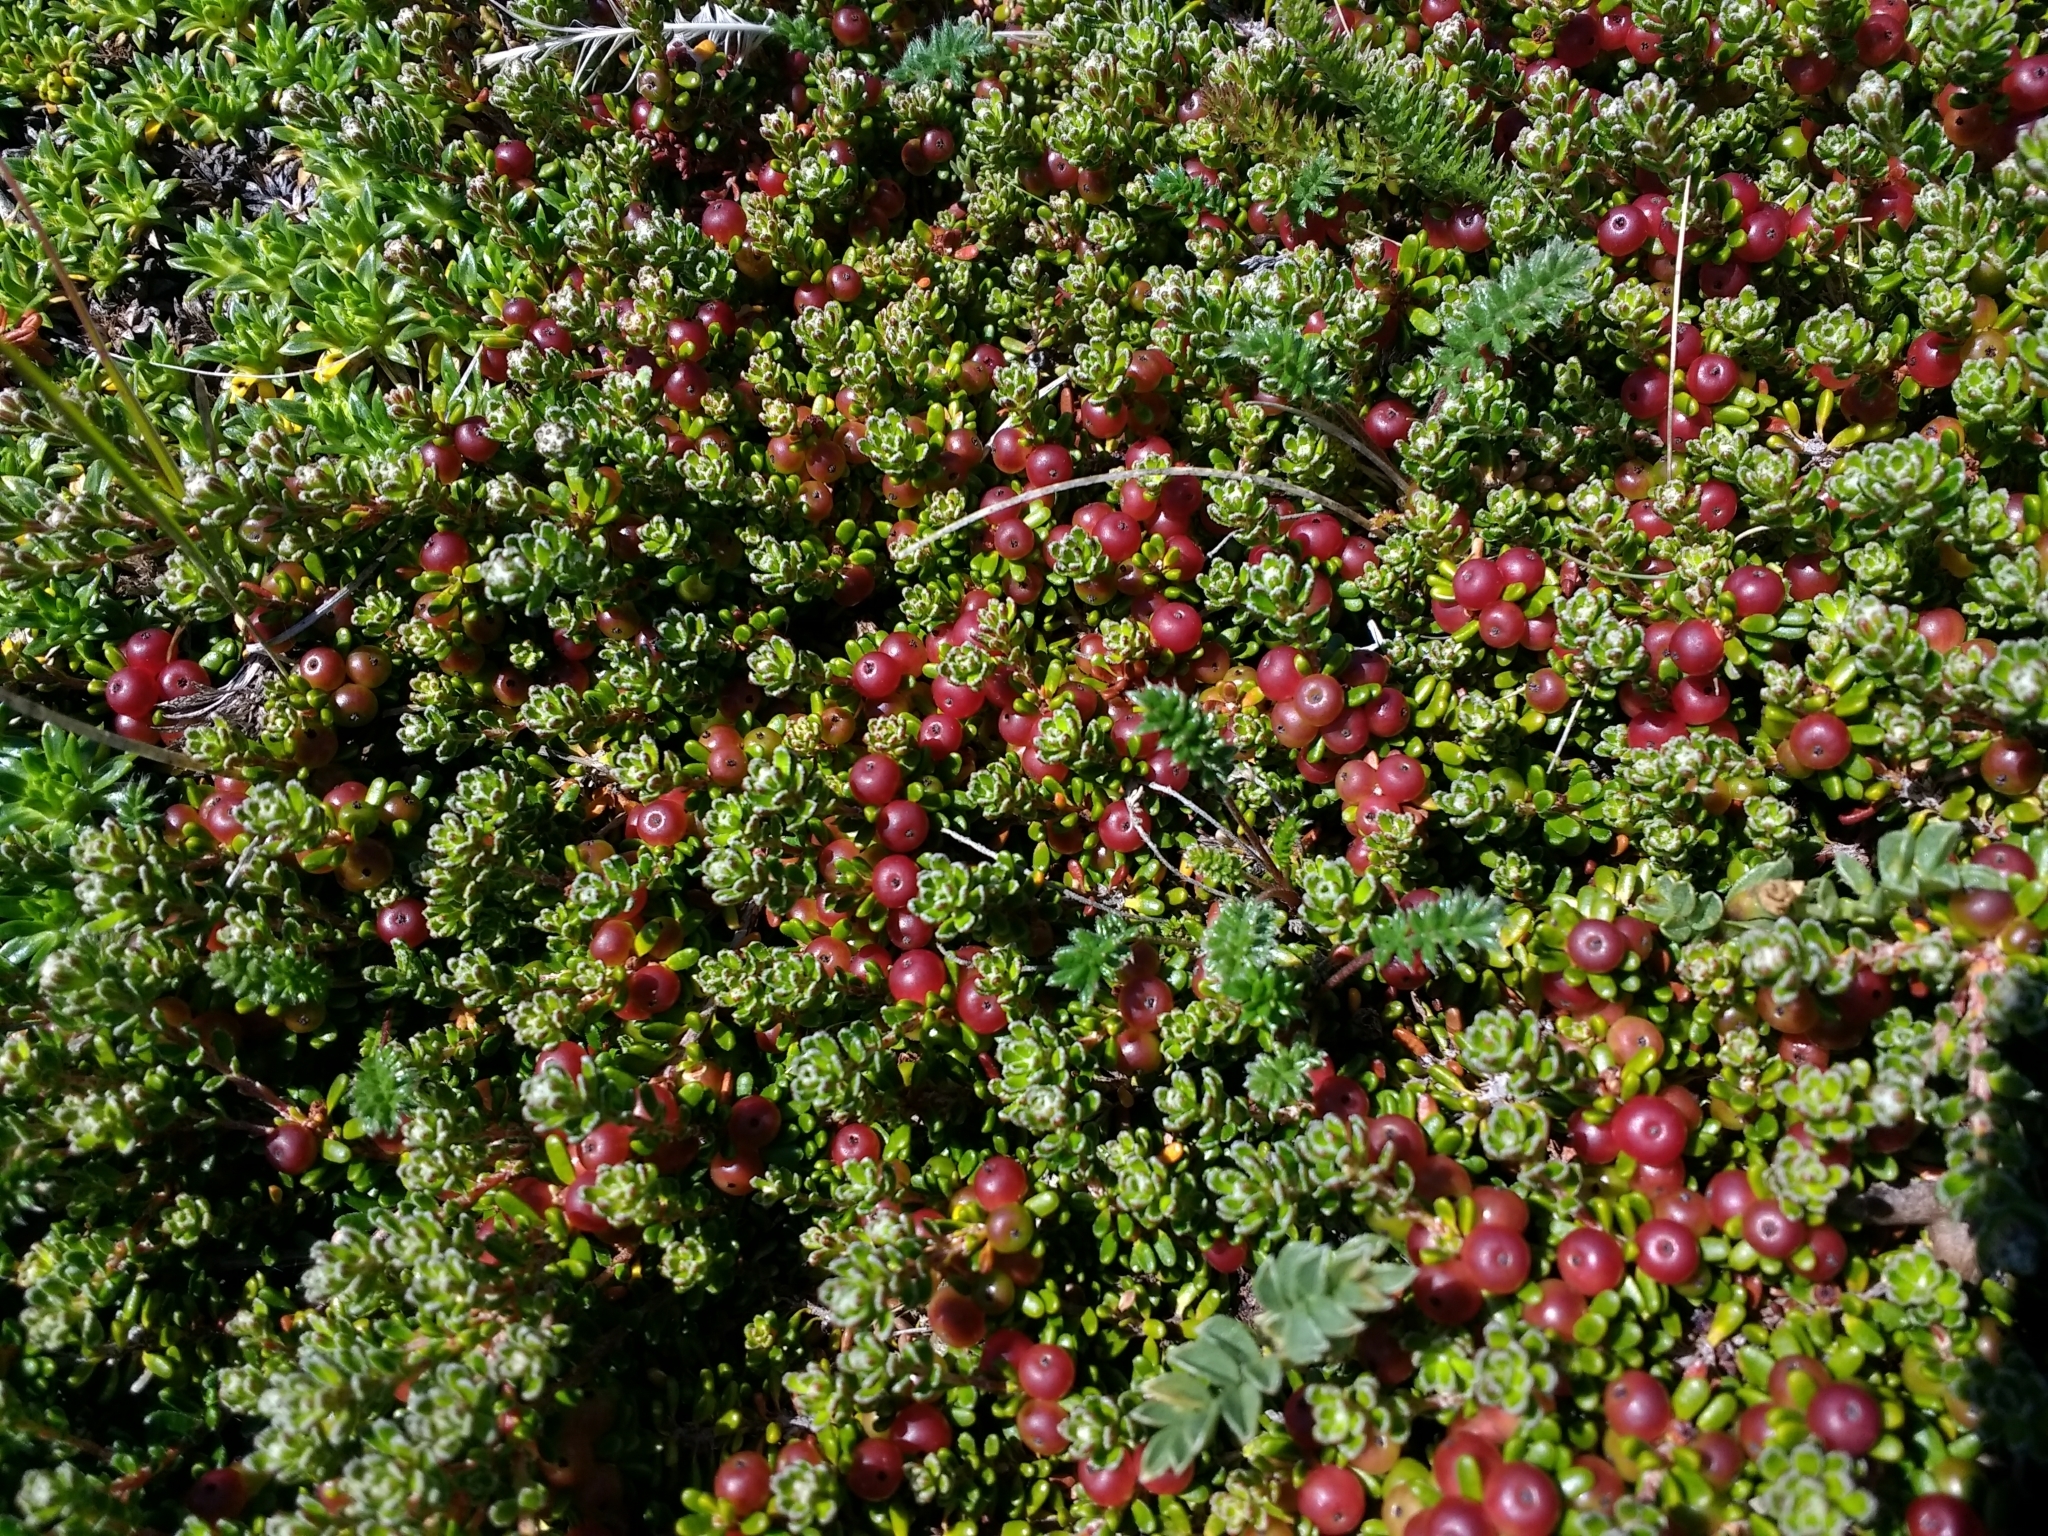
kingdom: Plantae
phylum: Tracheophyta
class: Magnoliopsida
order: Ericales
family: Ericaceae
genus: Empetrum
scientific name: Empetrum rubrum
